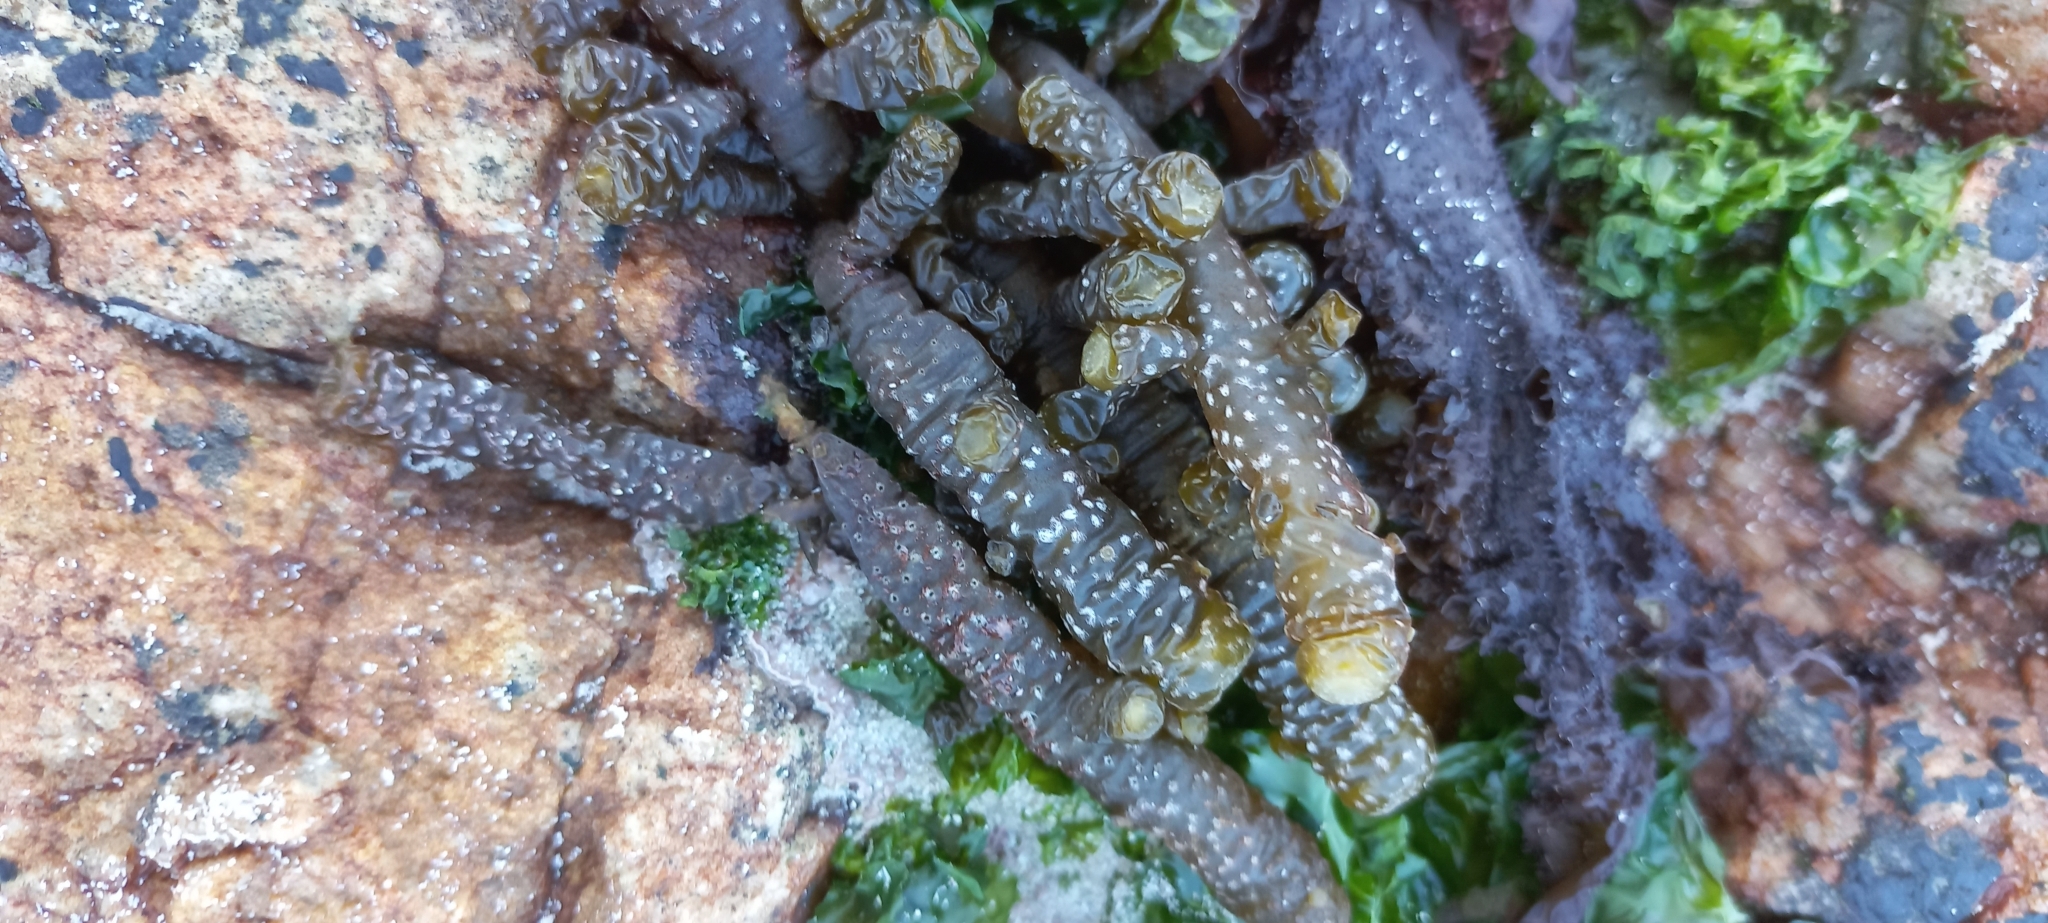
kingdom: Chromista
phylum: Ochrophyta
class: Phaeophyceae
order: Scytothamnales
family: Splachnidiaceae
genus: Splachnidium
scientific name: Splachnidium rugosum
